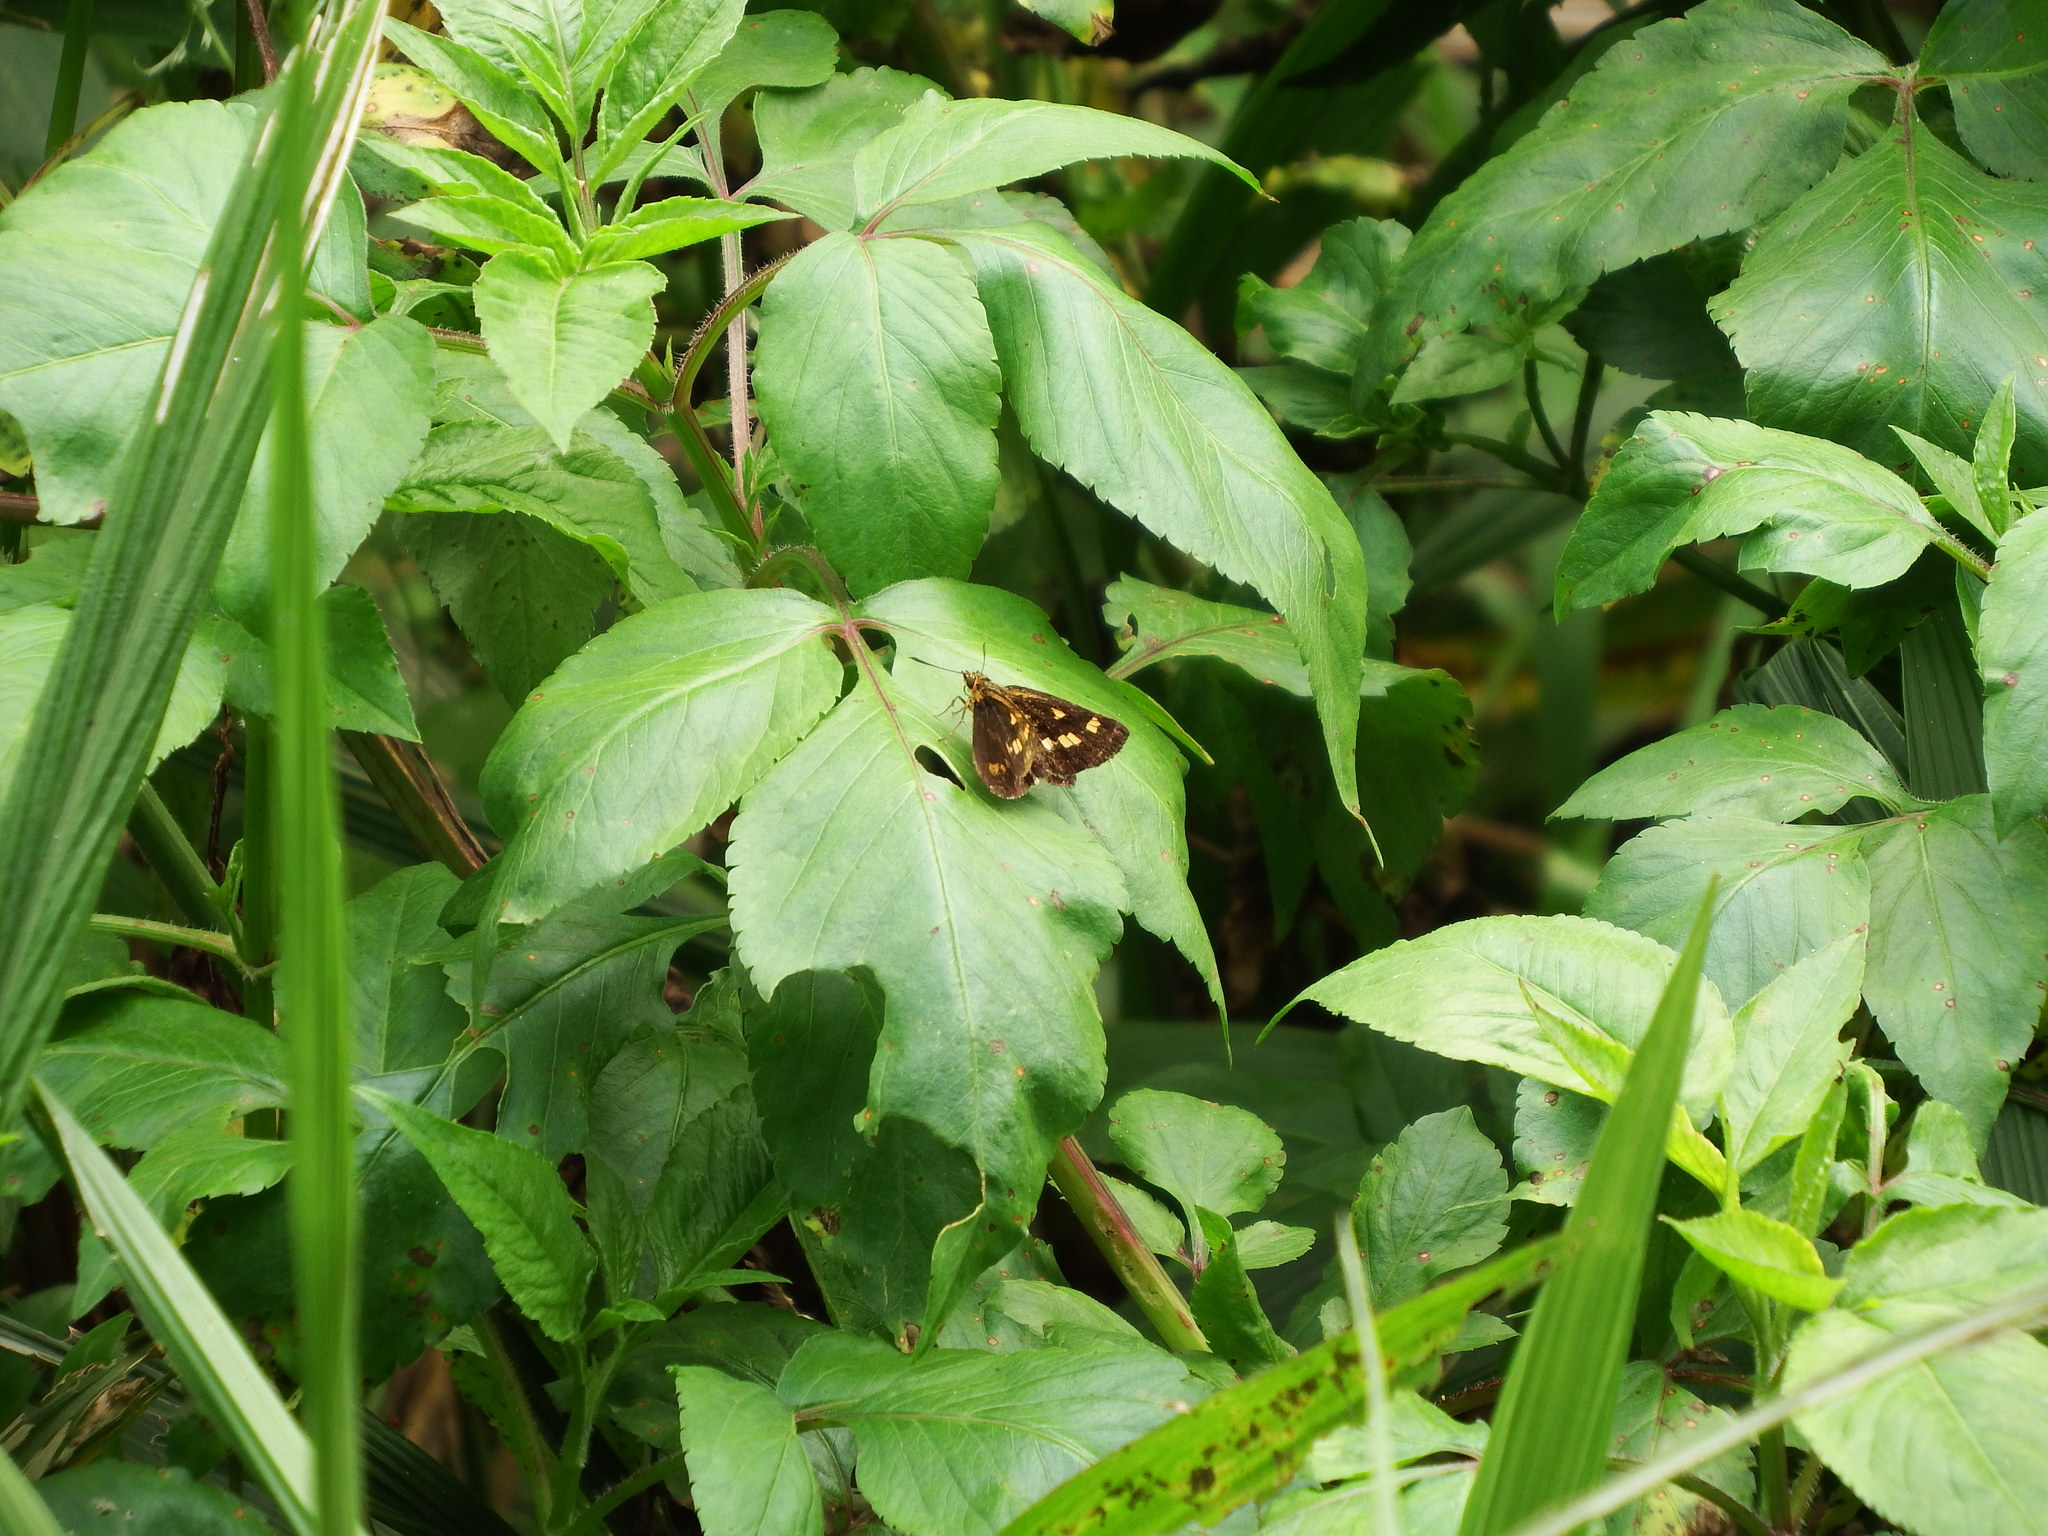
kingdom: Animalia
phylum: Arthropoda
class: Insecta
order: Lepidoptera
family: Hesperiidae
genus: Ampittia
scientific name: Ampittia virgata
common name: Striped bush hopper
